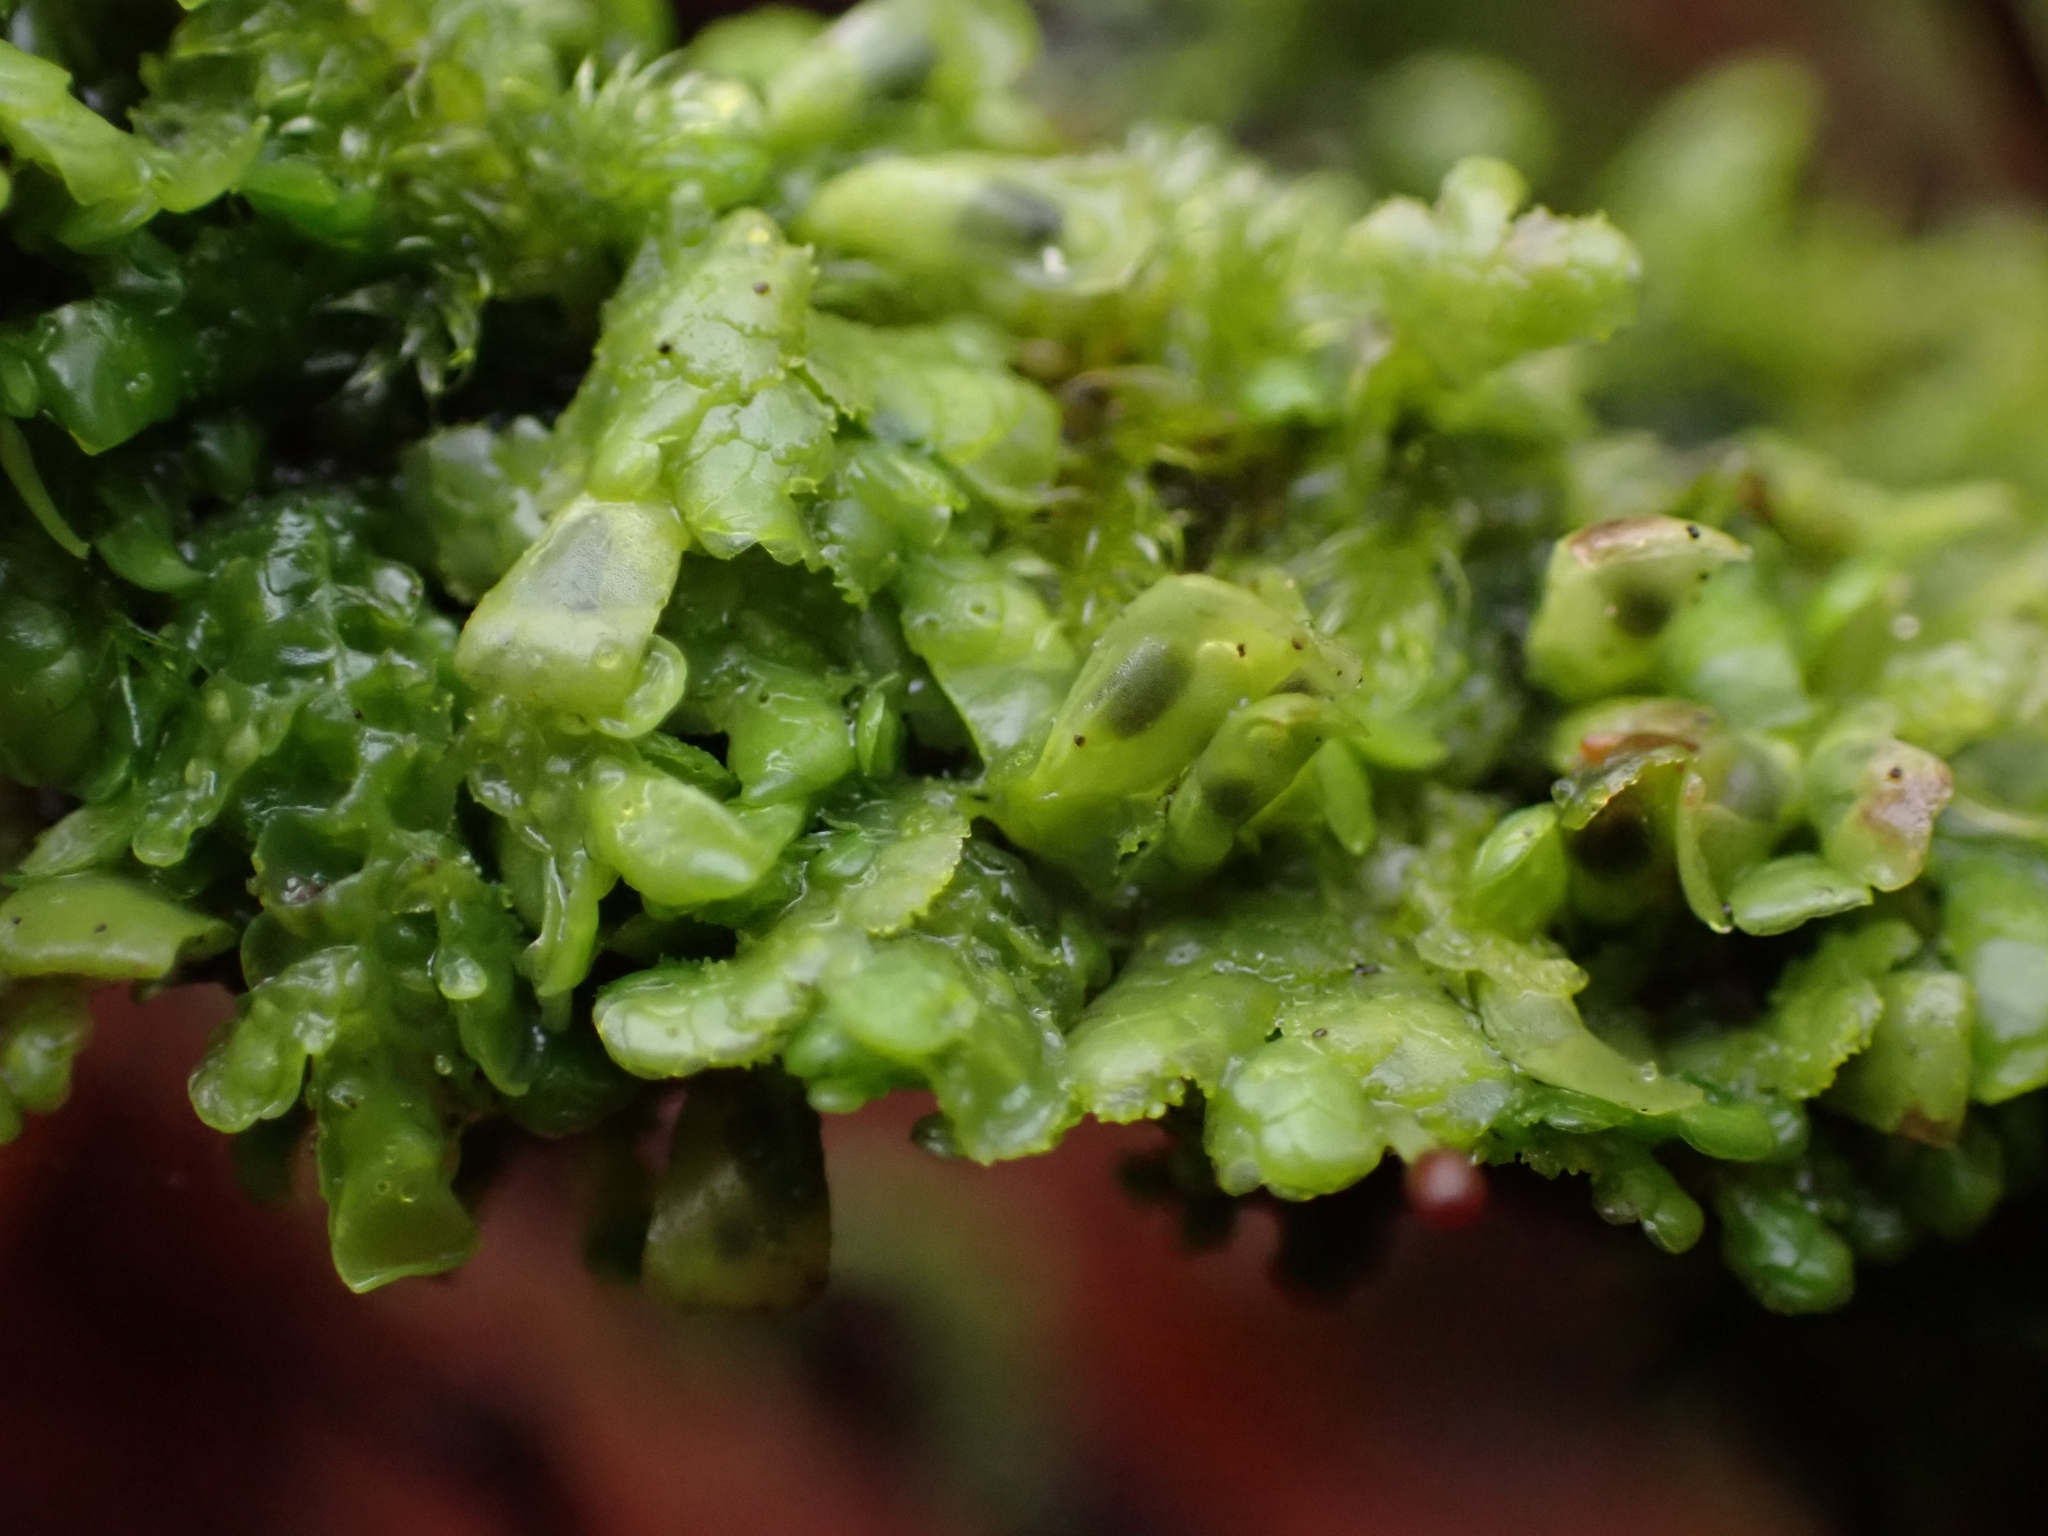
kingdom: Plantae
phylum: Marchantiophyta
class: Jungermanniopsida
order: Porellales
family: Radulaceae
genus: Radula
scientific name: Radula complanata
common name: Flat-leaved scalewort
